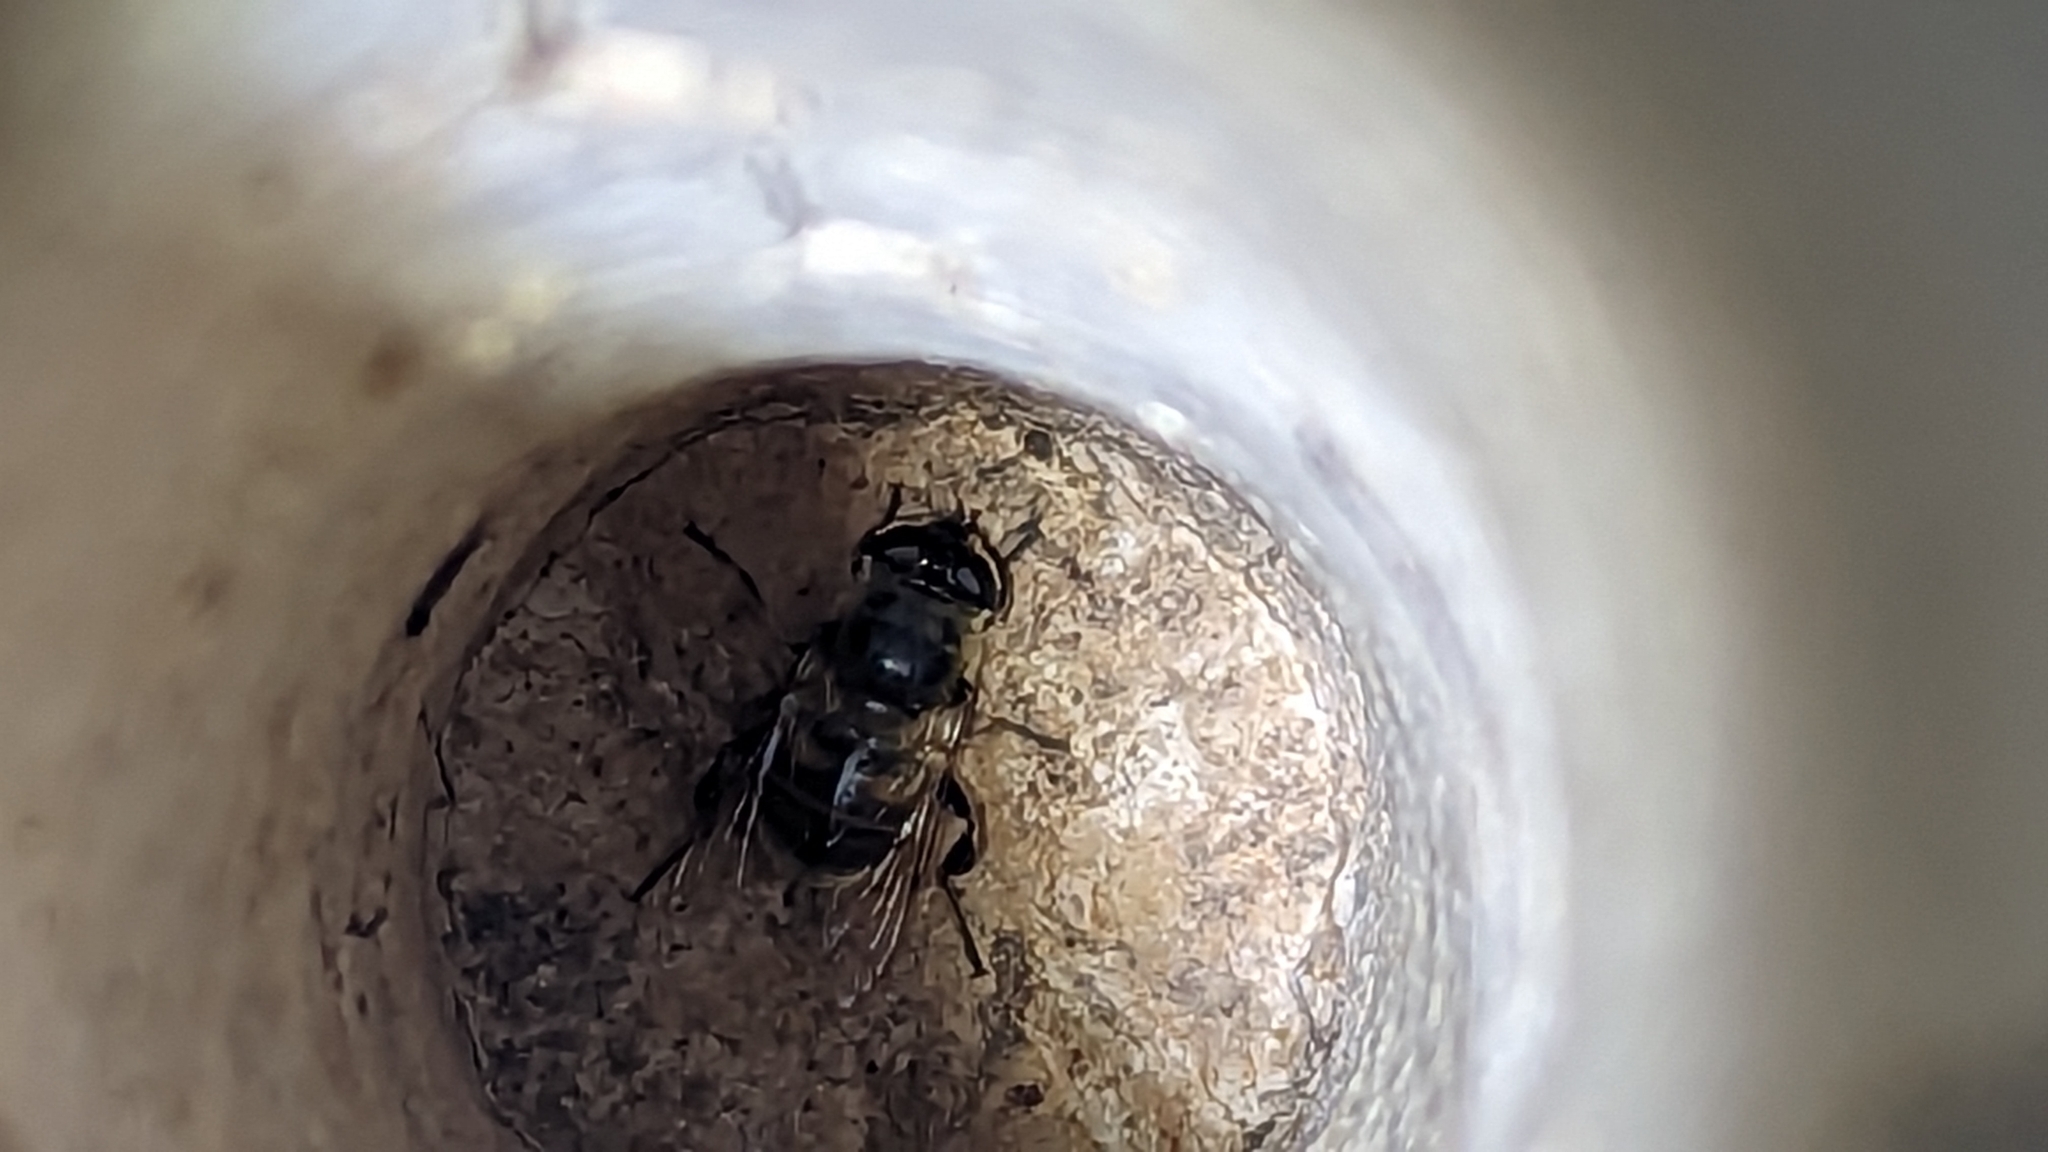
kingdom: Animalia
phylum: Arthropoda
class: Insecta
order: Diptera
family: Syrphidae
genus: Eristalis
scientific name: Eristalis tenax
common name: Drone fly
